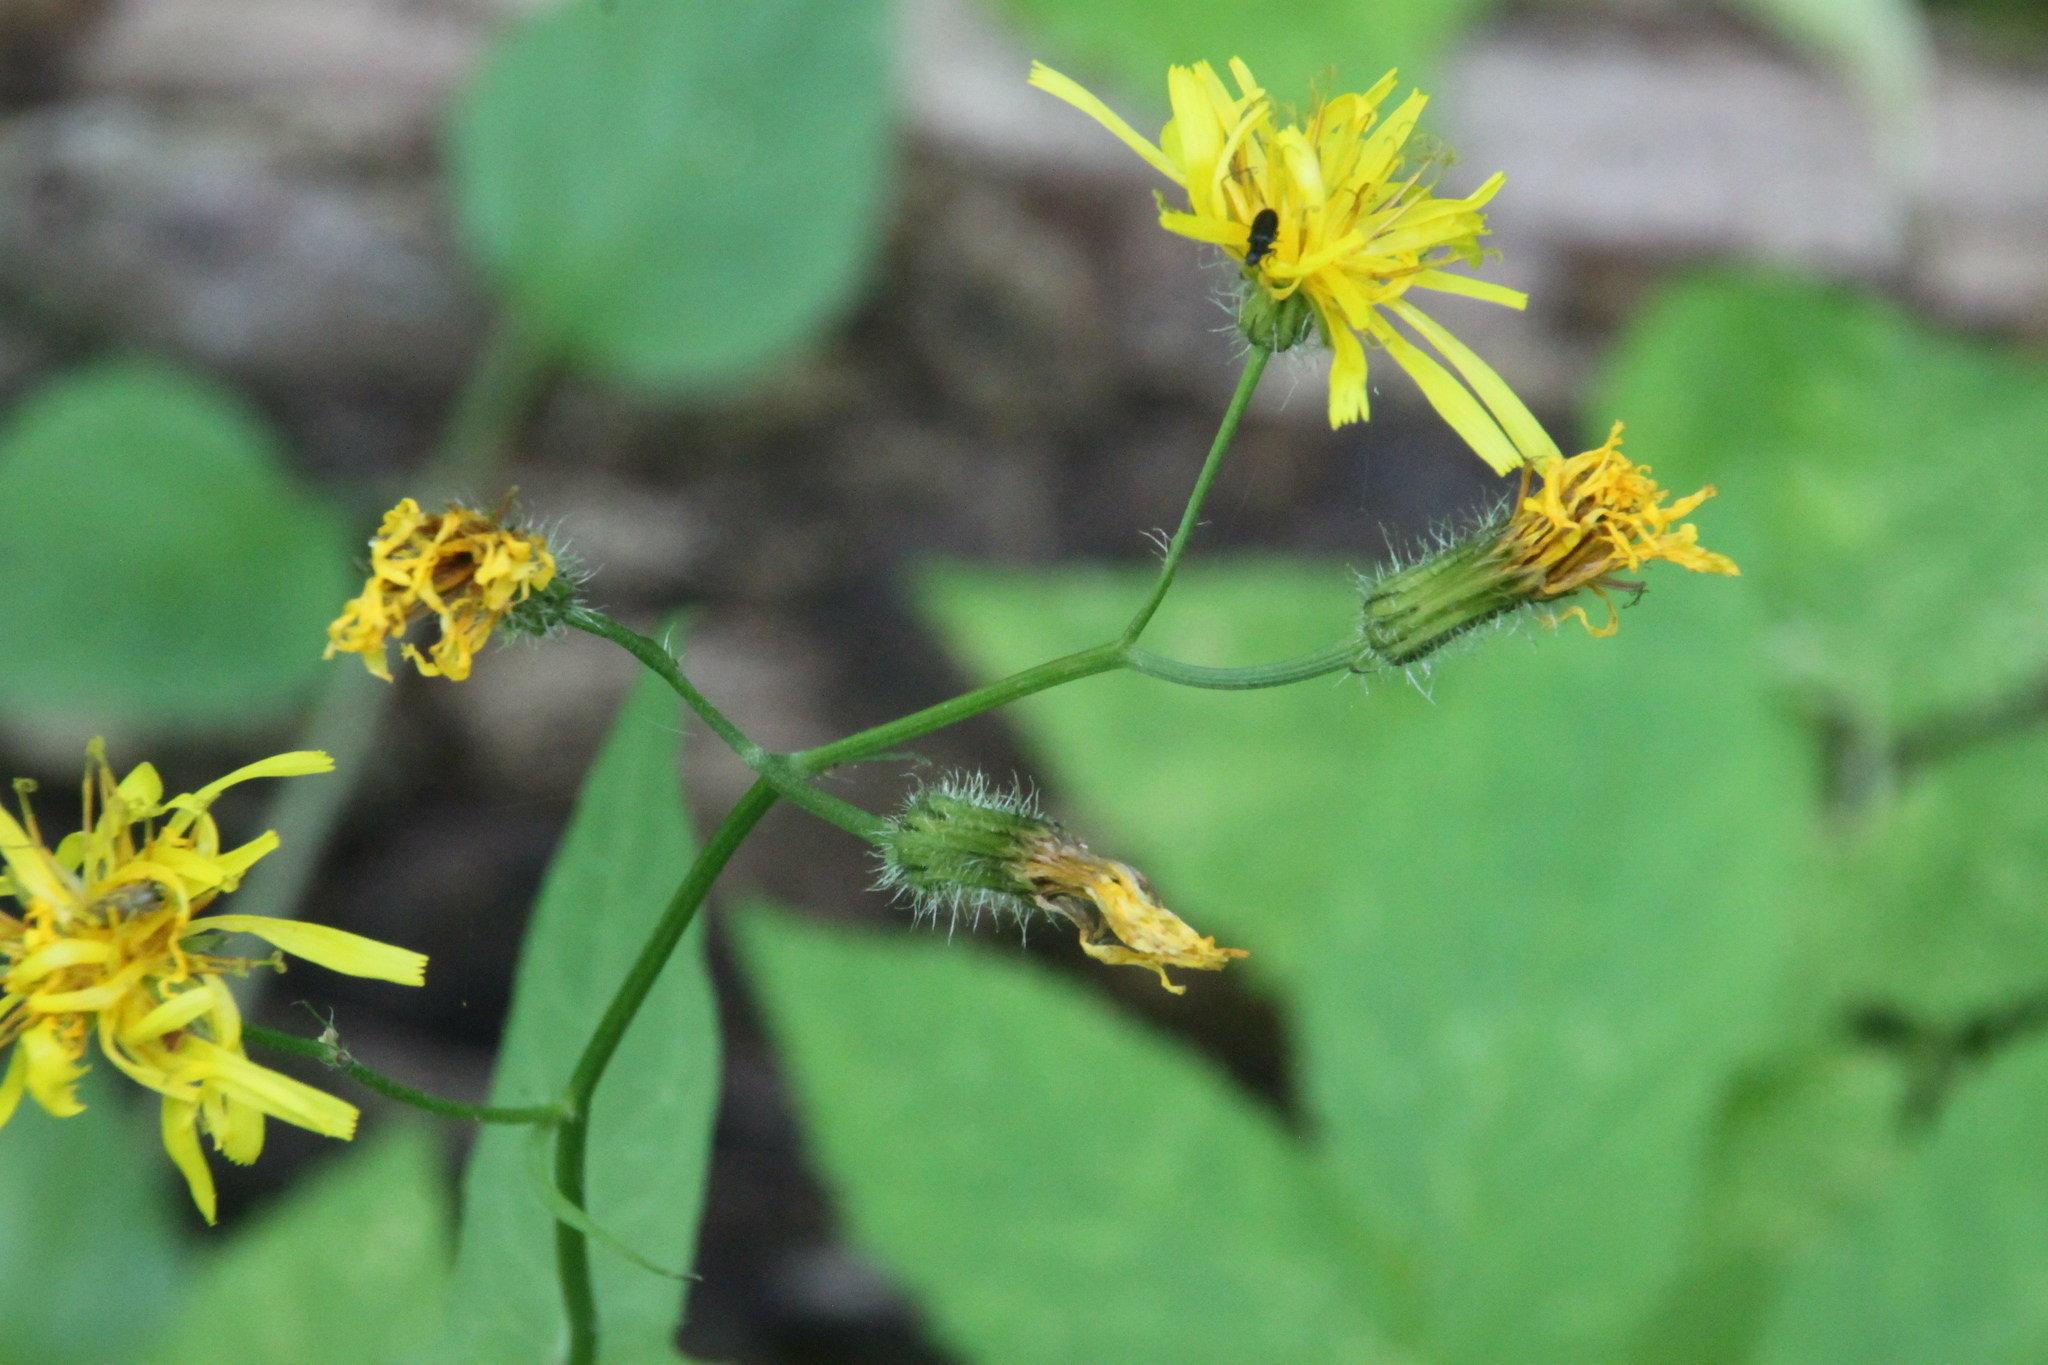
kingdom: Plantae
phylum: Tracheophyta
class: Magnoliopsida
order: Asterales
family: Asteraceae
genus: Crepis
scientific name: Crepis paludosa
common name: Marsh hawk's-beard
